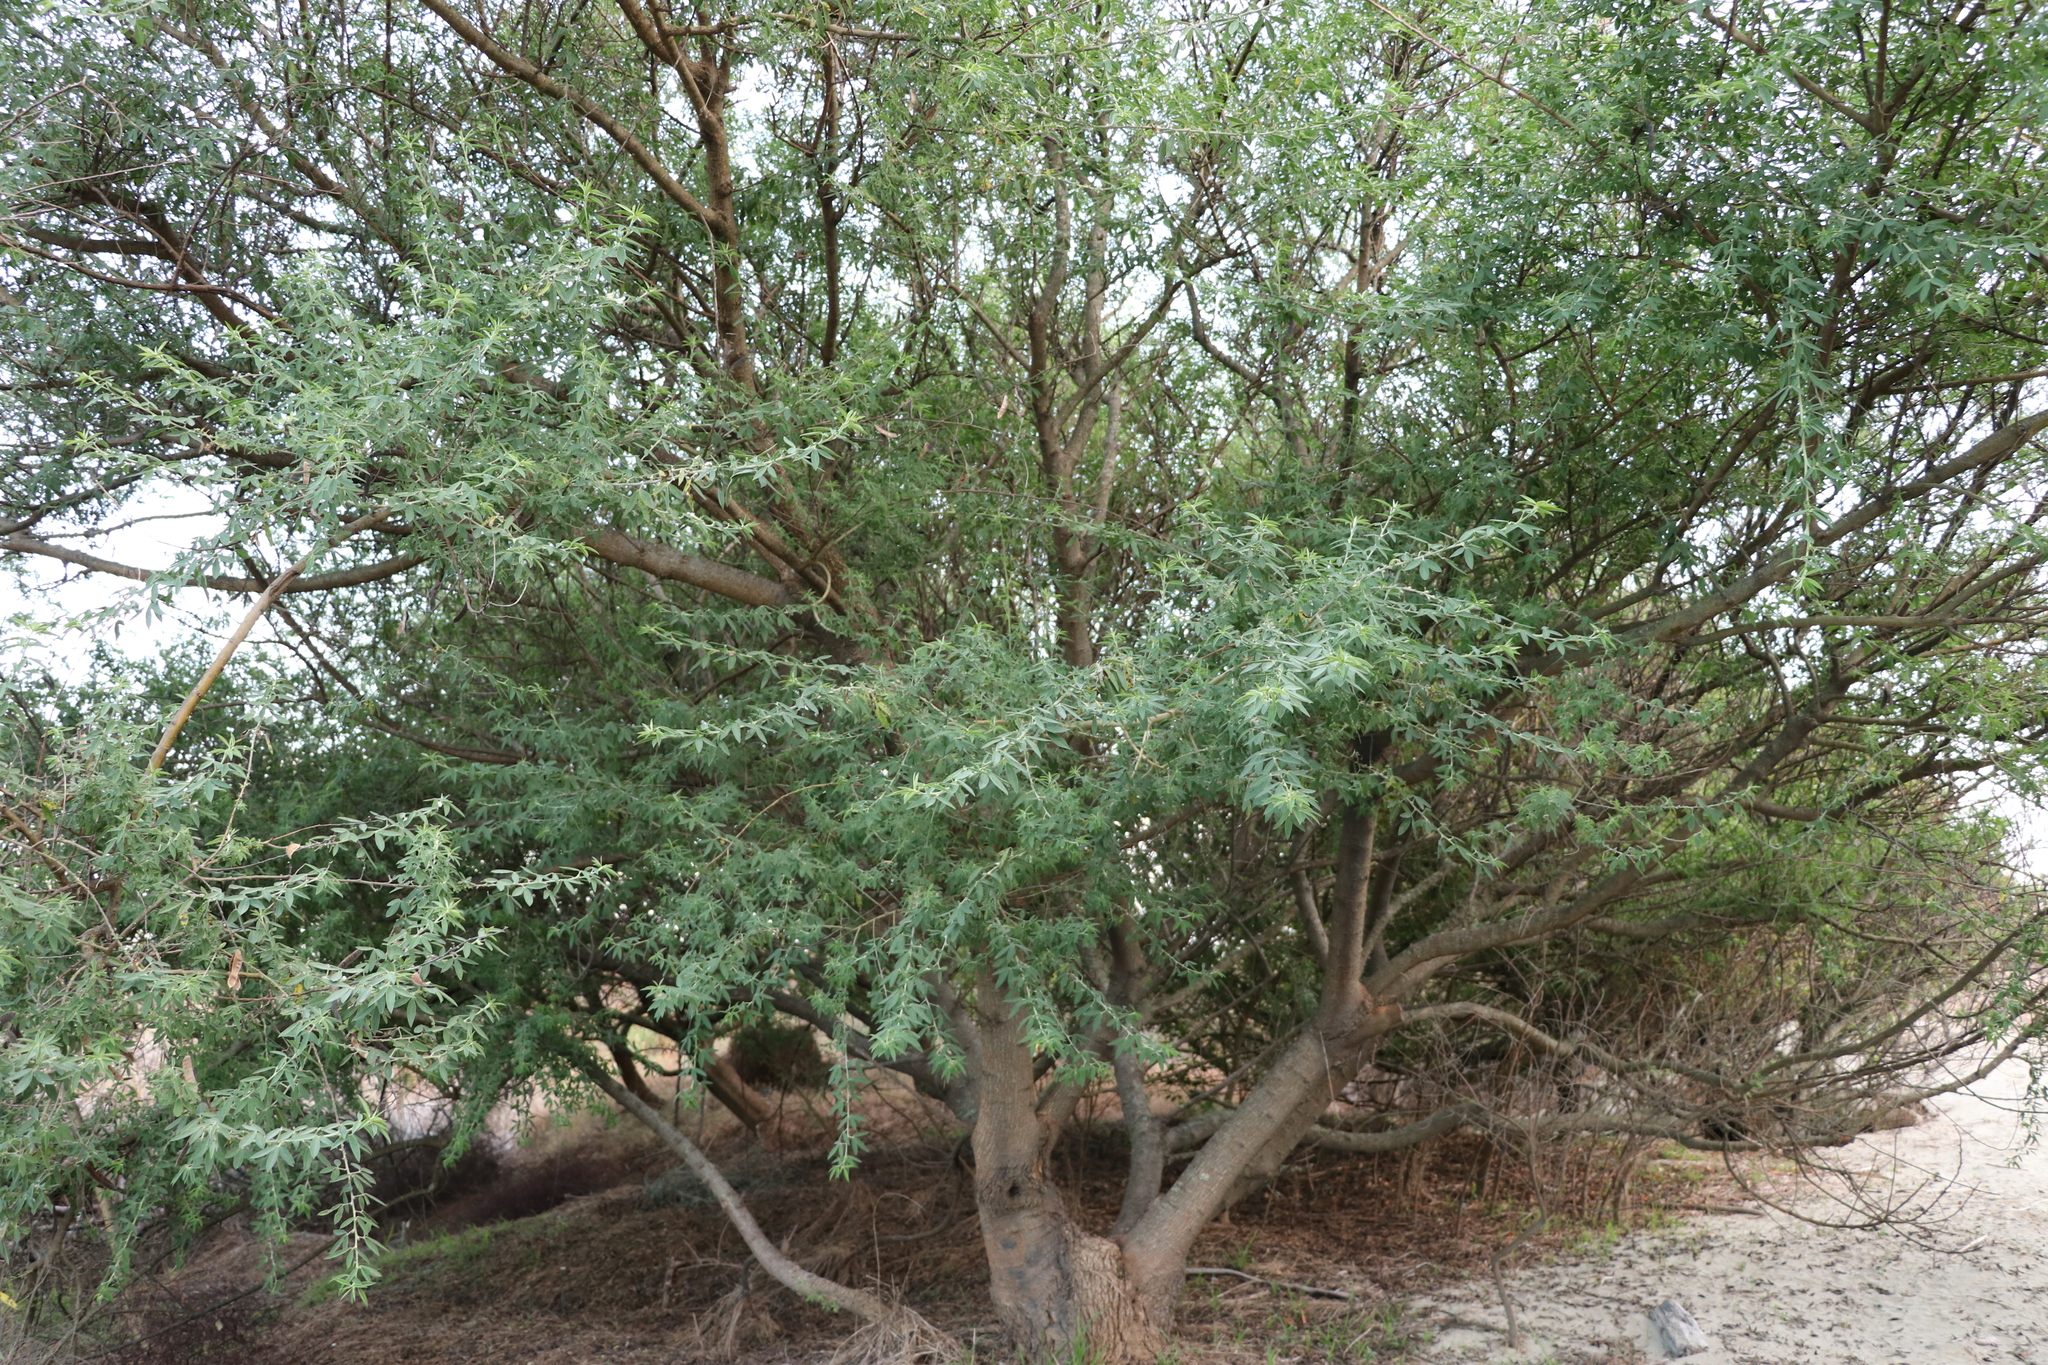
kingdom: Plantae
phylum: Tracheophyta
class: Magnoliopsida
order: Fabales
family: Fabaceae
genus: Chamaecytisus
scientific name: Chamaecytisus prolifer
